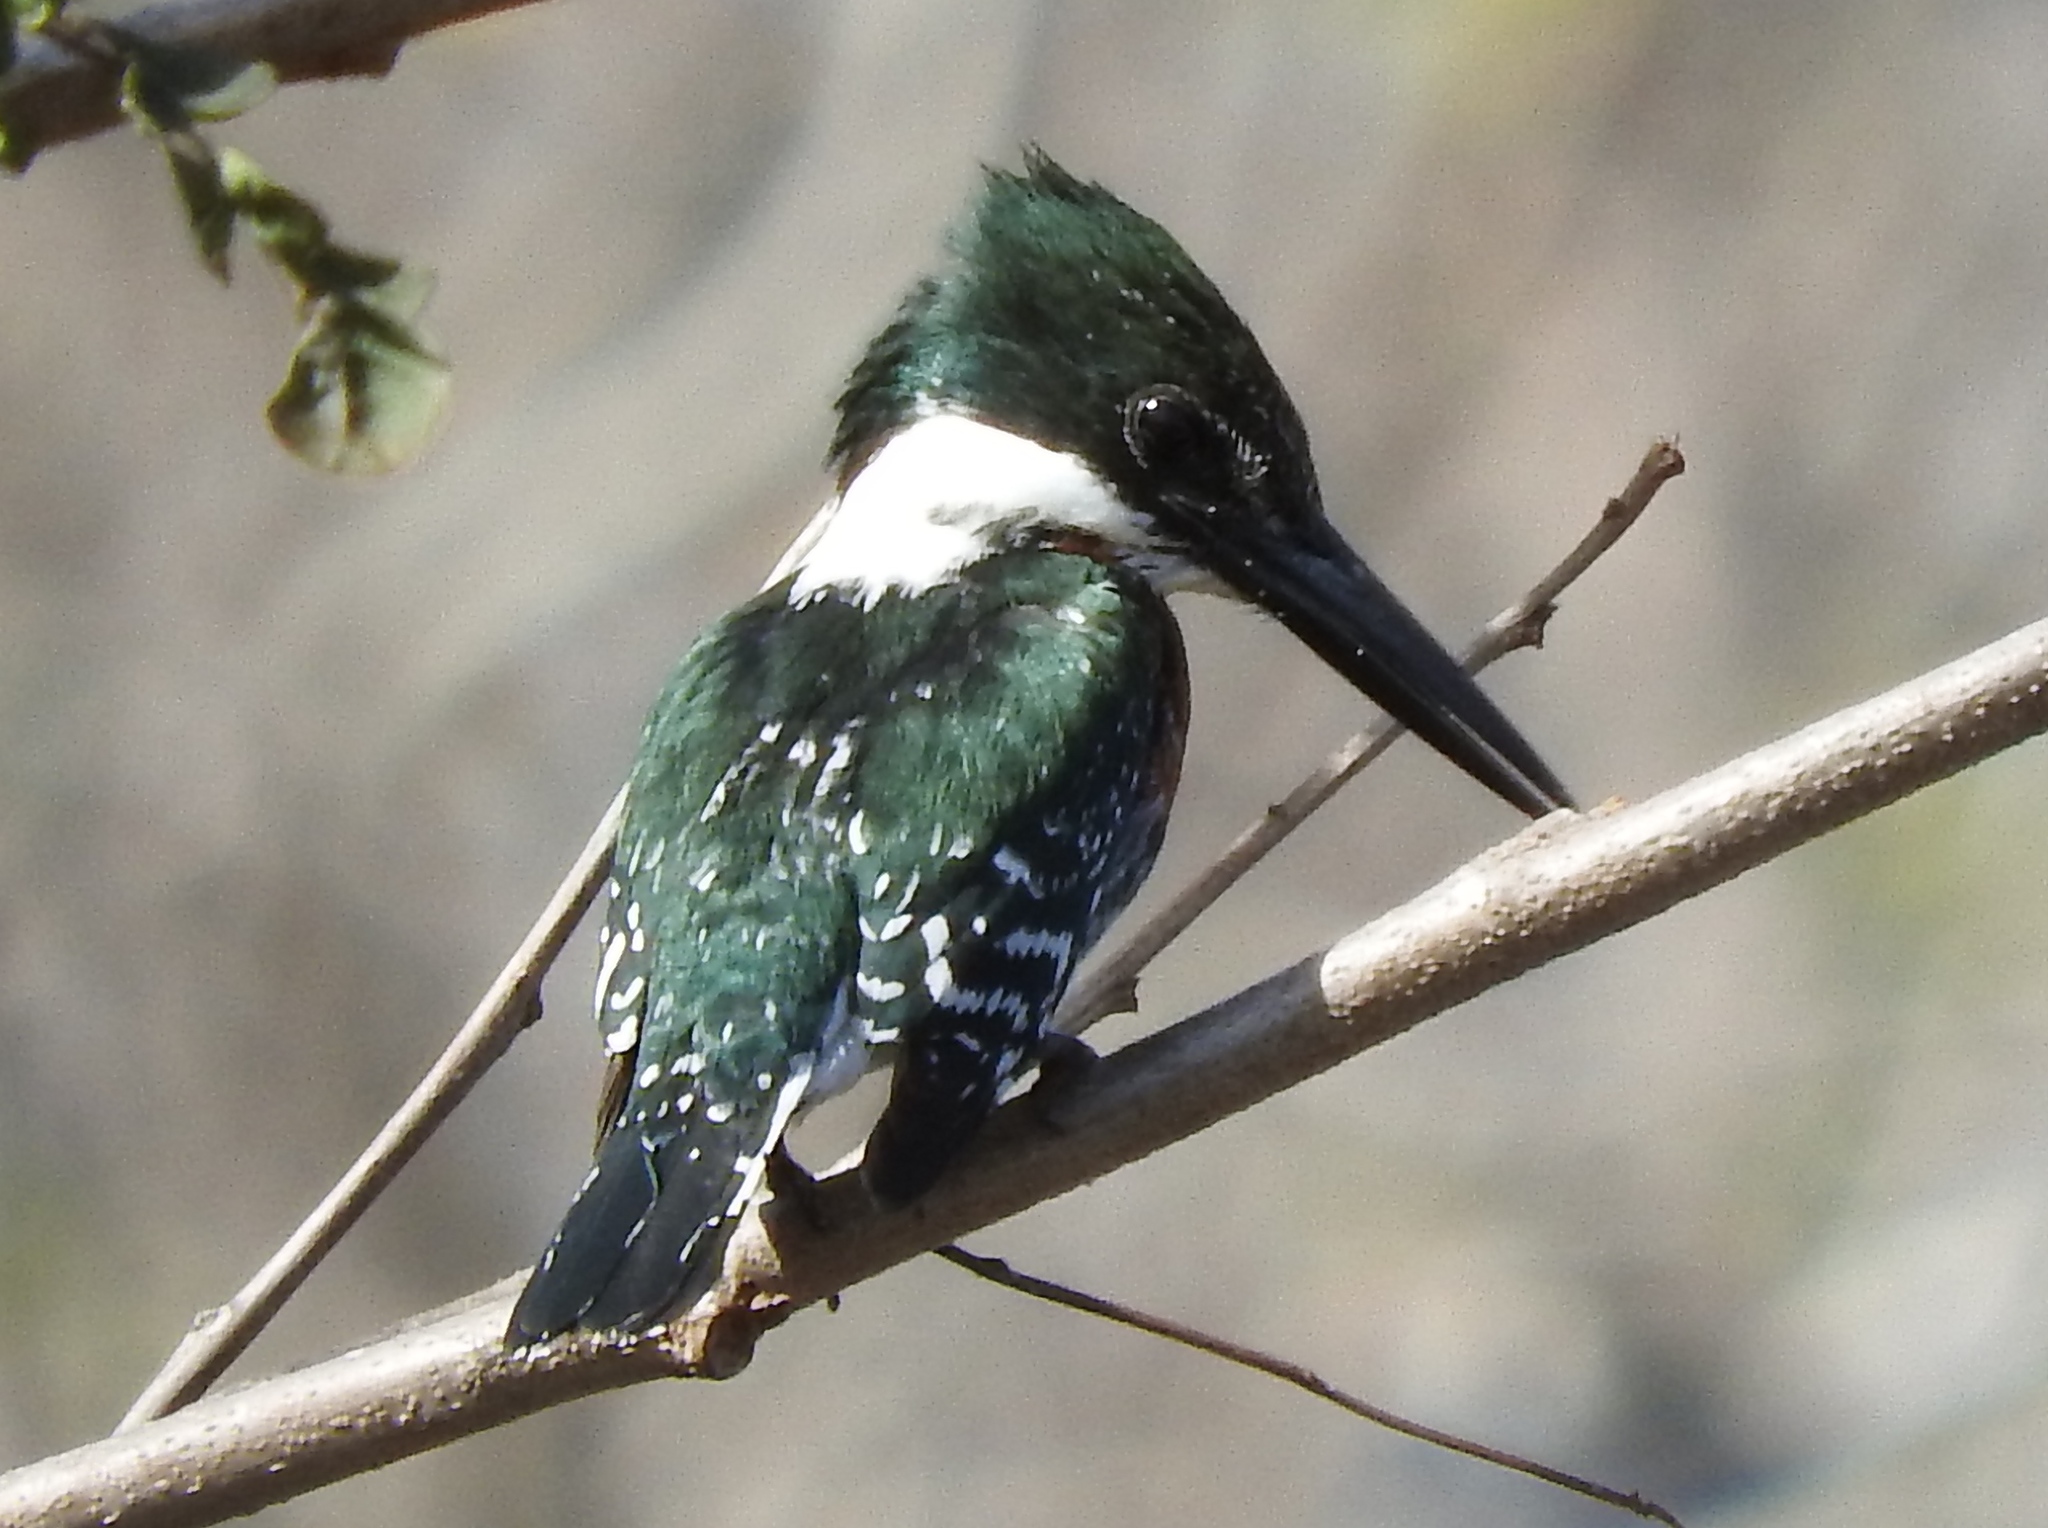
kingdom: Animalia
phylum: Chordata
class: Aves
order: Coraciiformes
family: Alcedinidae
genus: Chloroceryle
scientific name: Chloroceryle americana
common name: Green kingfisher
